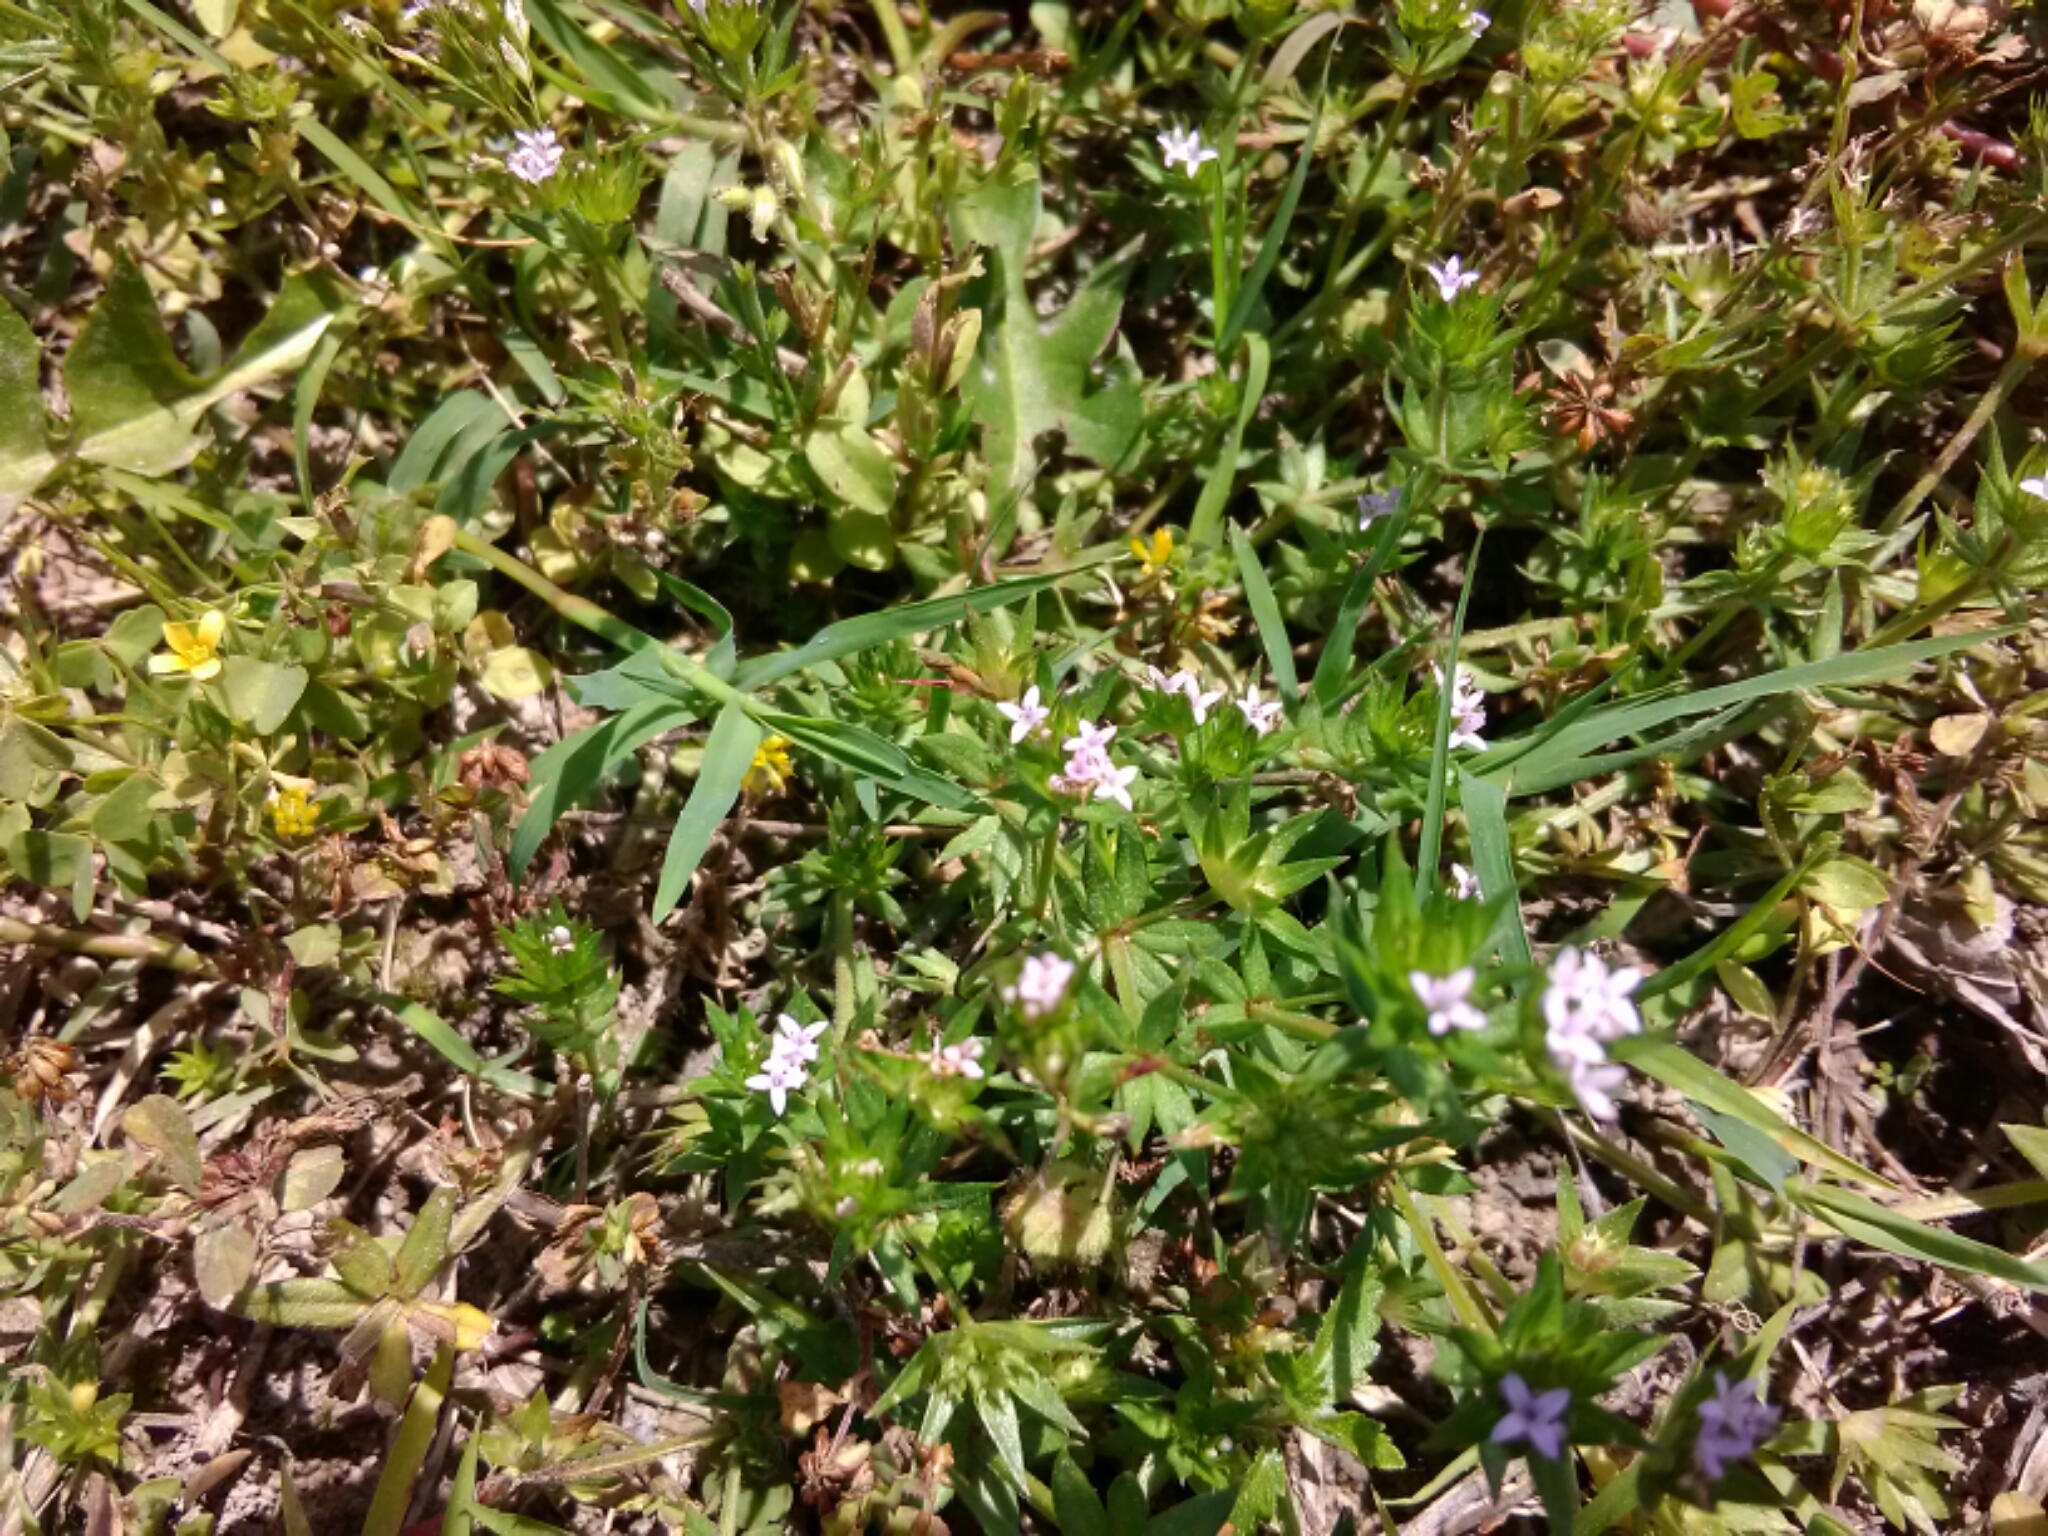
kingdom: Plantae
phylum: Tracheophyta
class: Magnoliopsida
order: Gentianales
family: Rubiaceae
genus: Sherardia
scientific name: Sherardia arvensis
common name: Field madder
